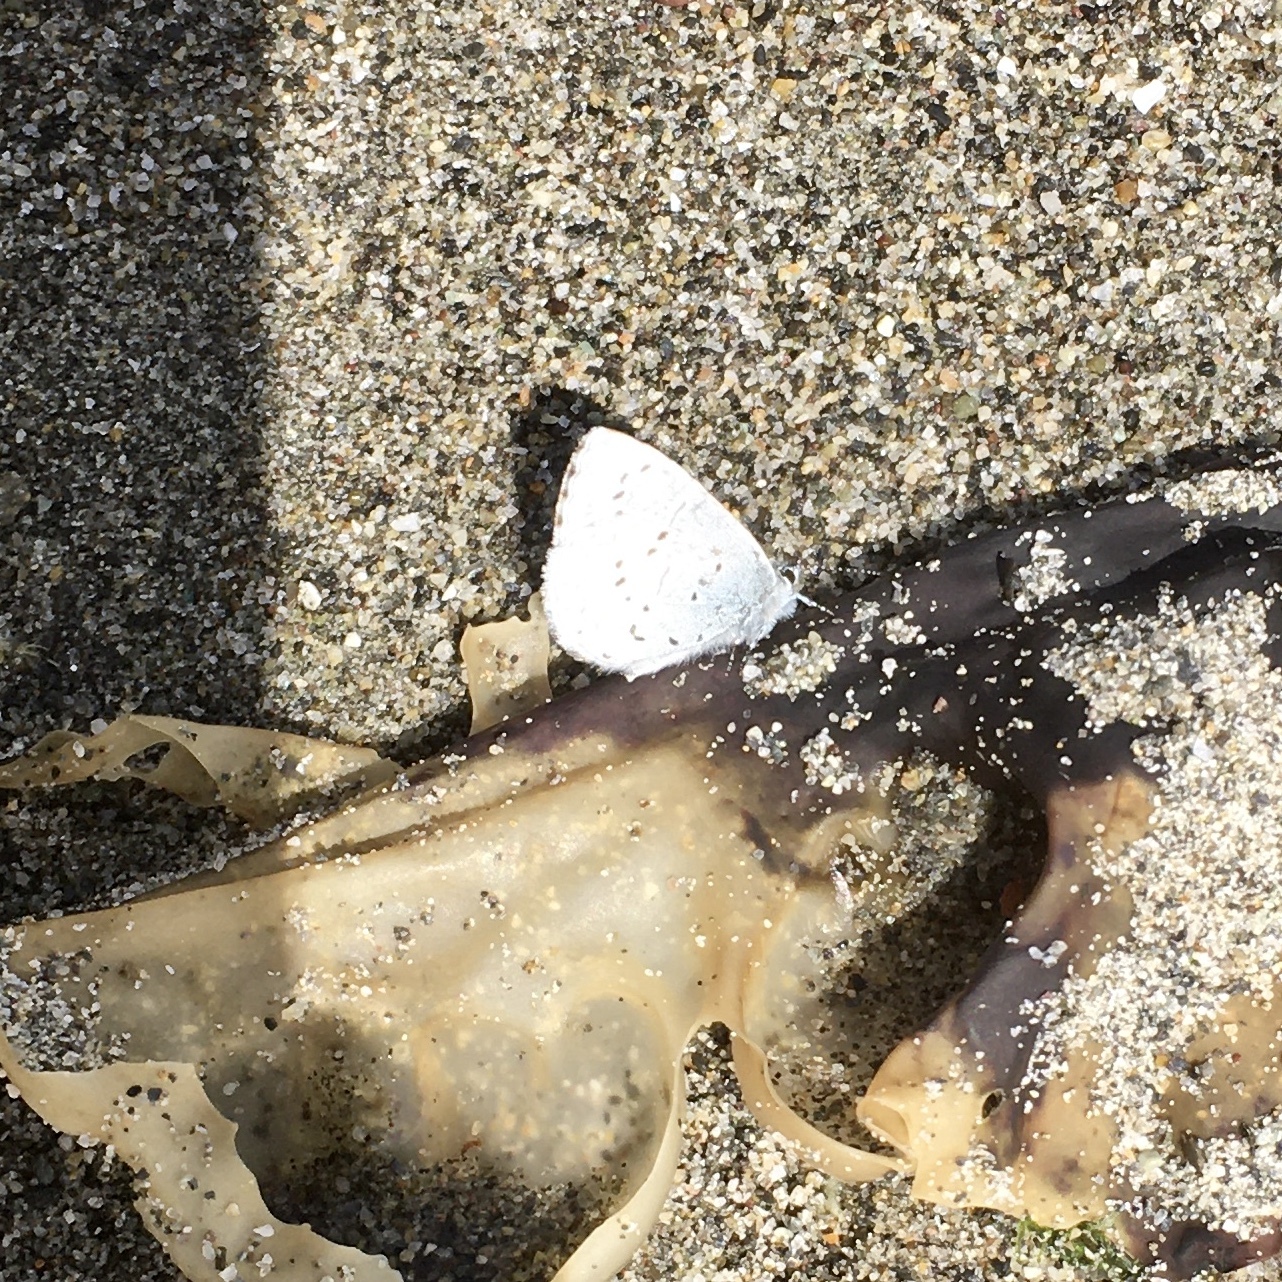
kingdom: Animalia
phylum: Arthropoda
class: Insecta
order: Lepidoptera
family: Lycaenidae
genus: Celastrina
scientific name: Celastrina ladon
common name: Spring azure
